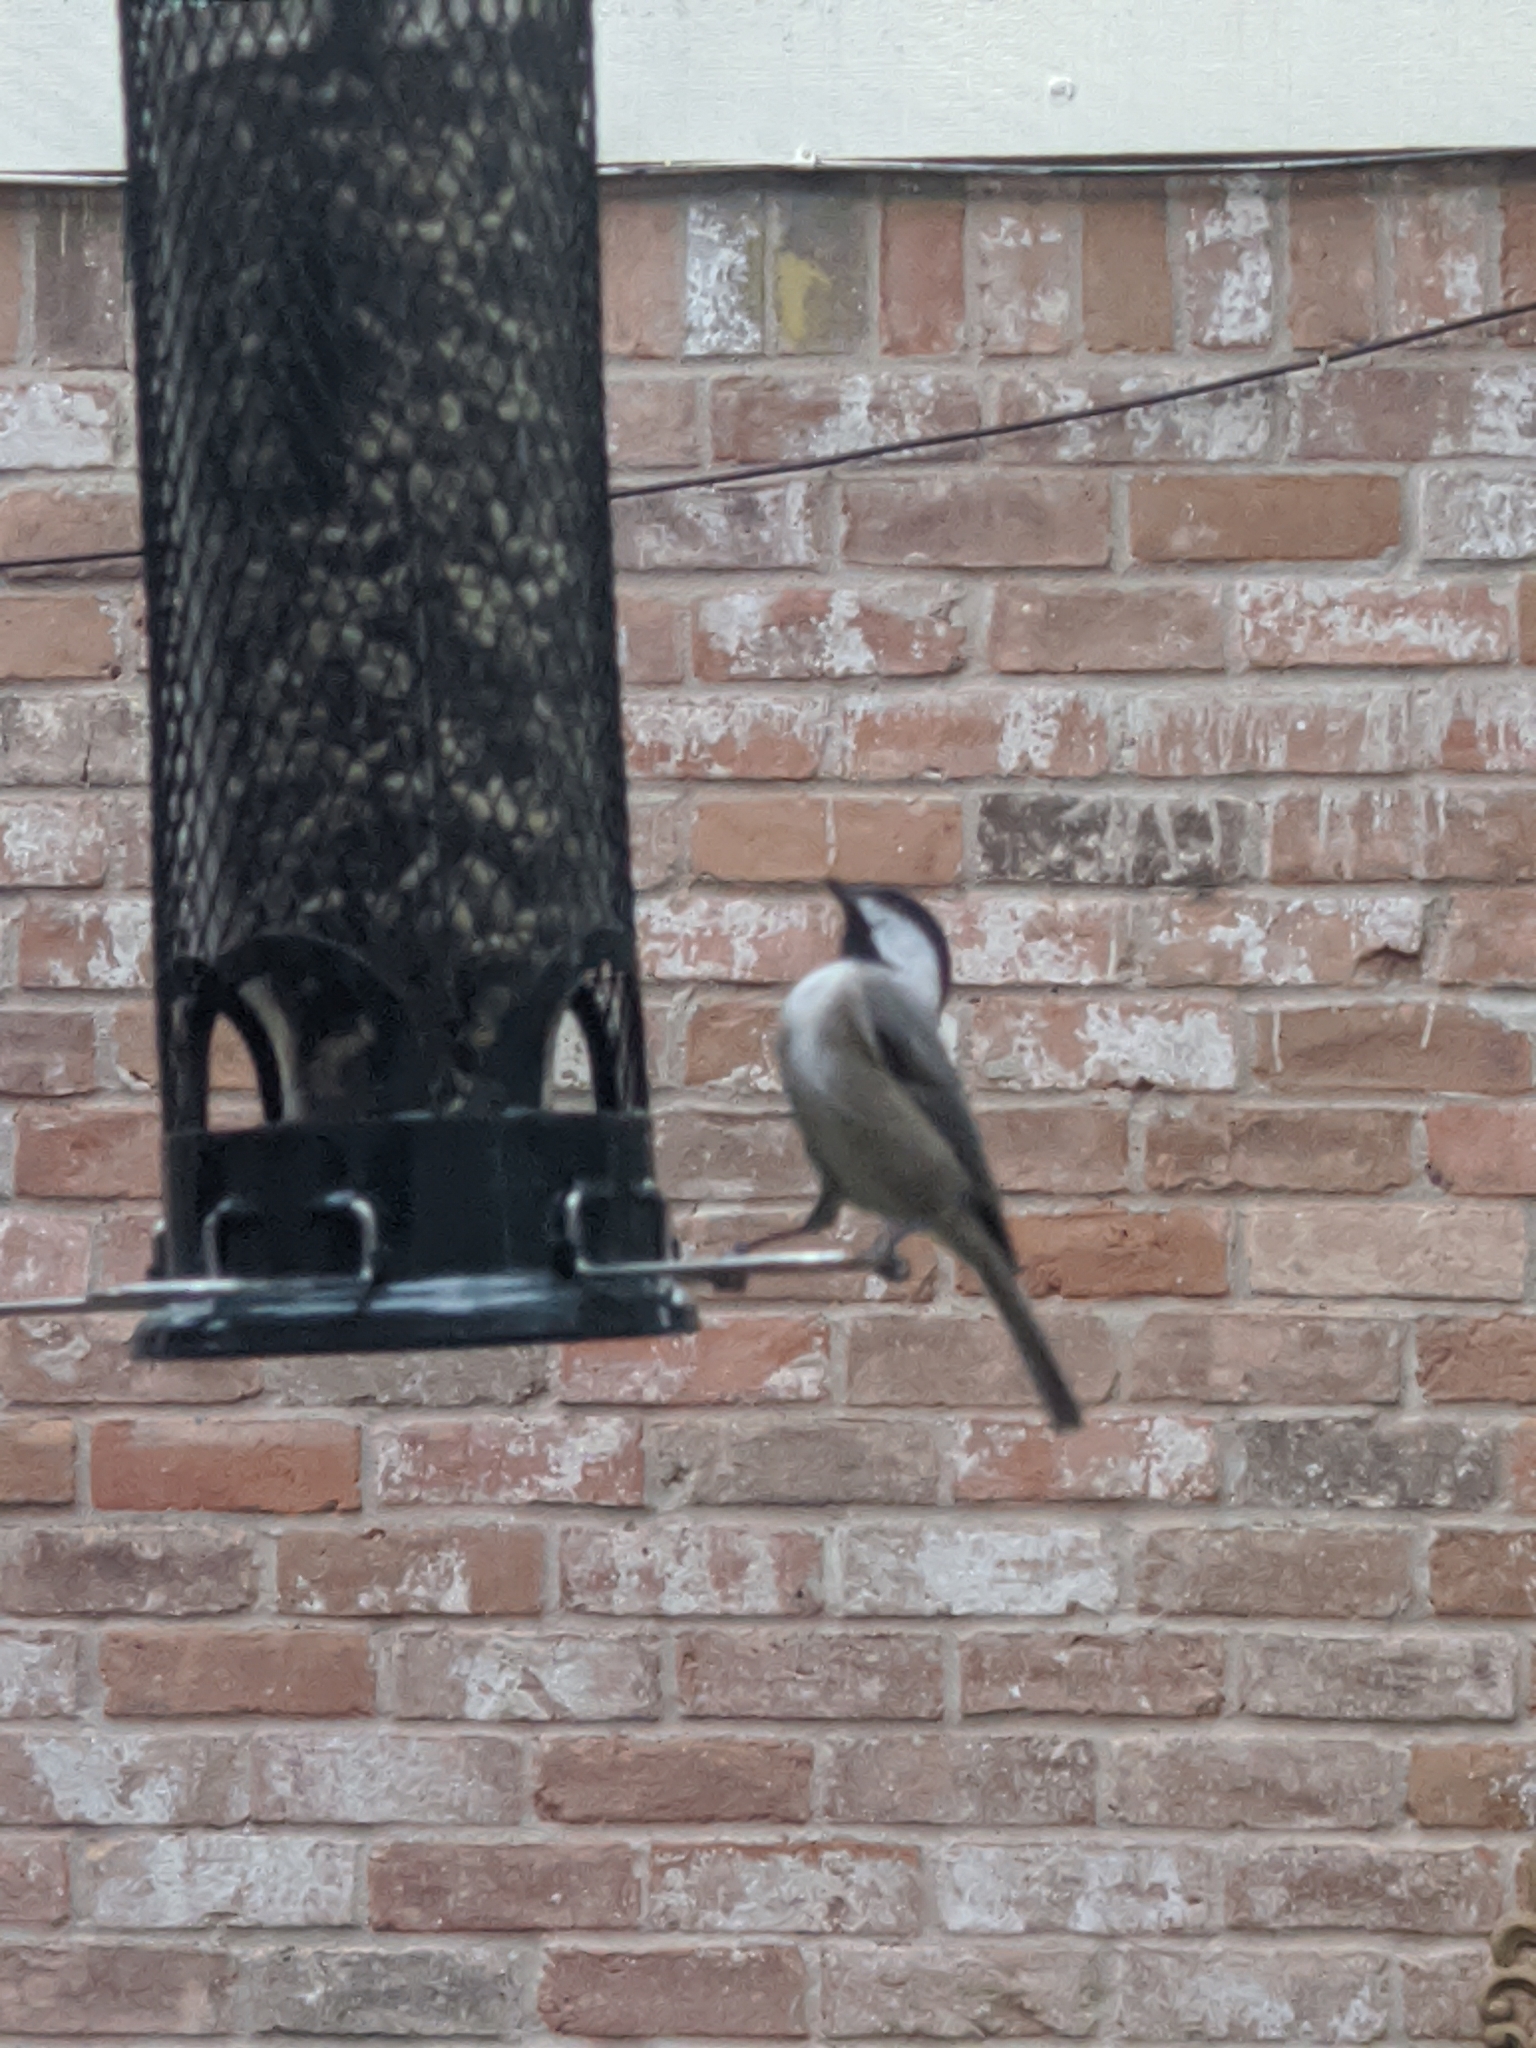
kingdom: Animalia
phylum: Chordata
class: Aves
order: Passeriformes
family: Paridae
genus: Poecile
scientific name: Poecile carolinensis
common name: Carolina chickadee
